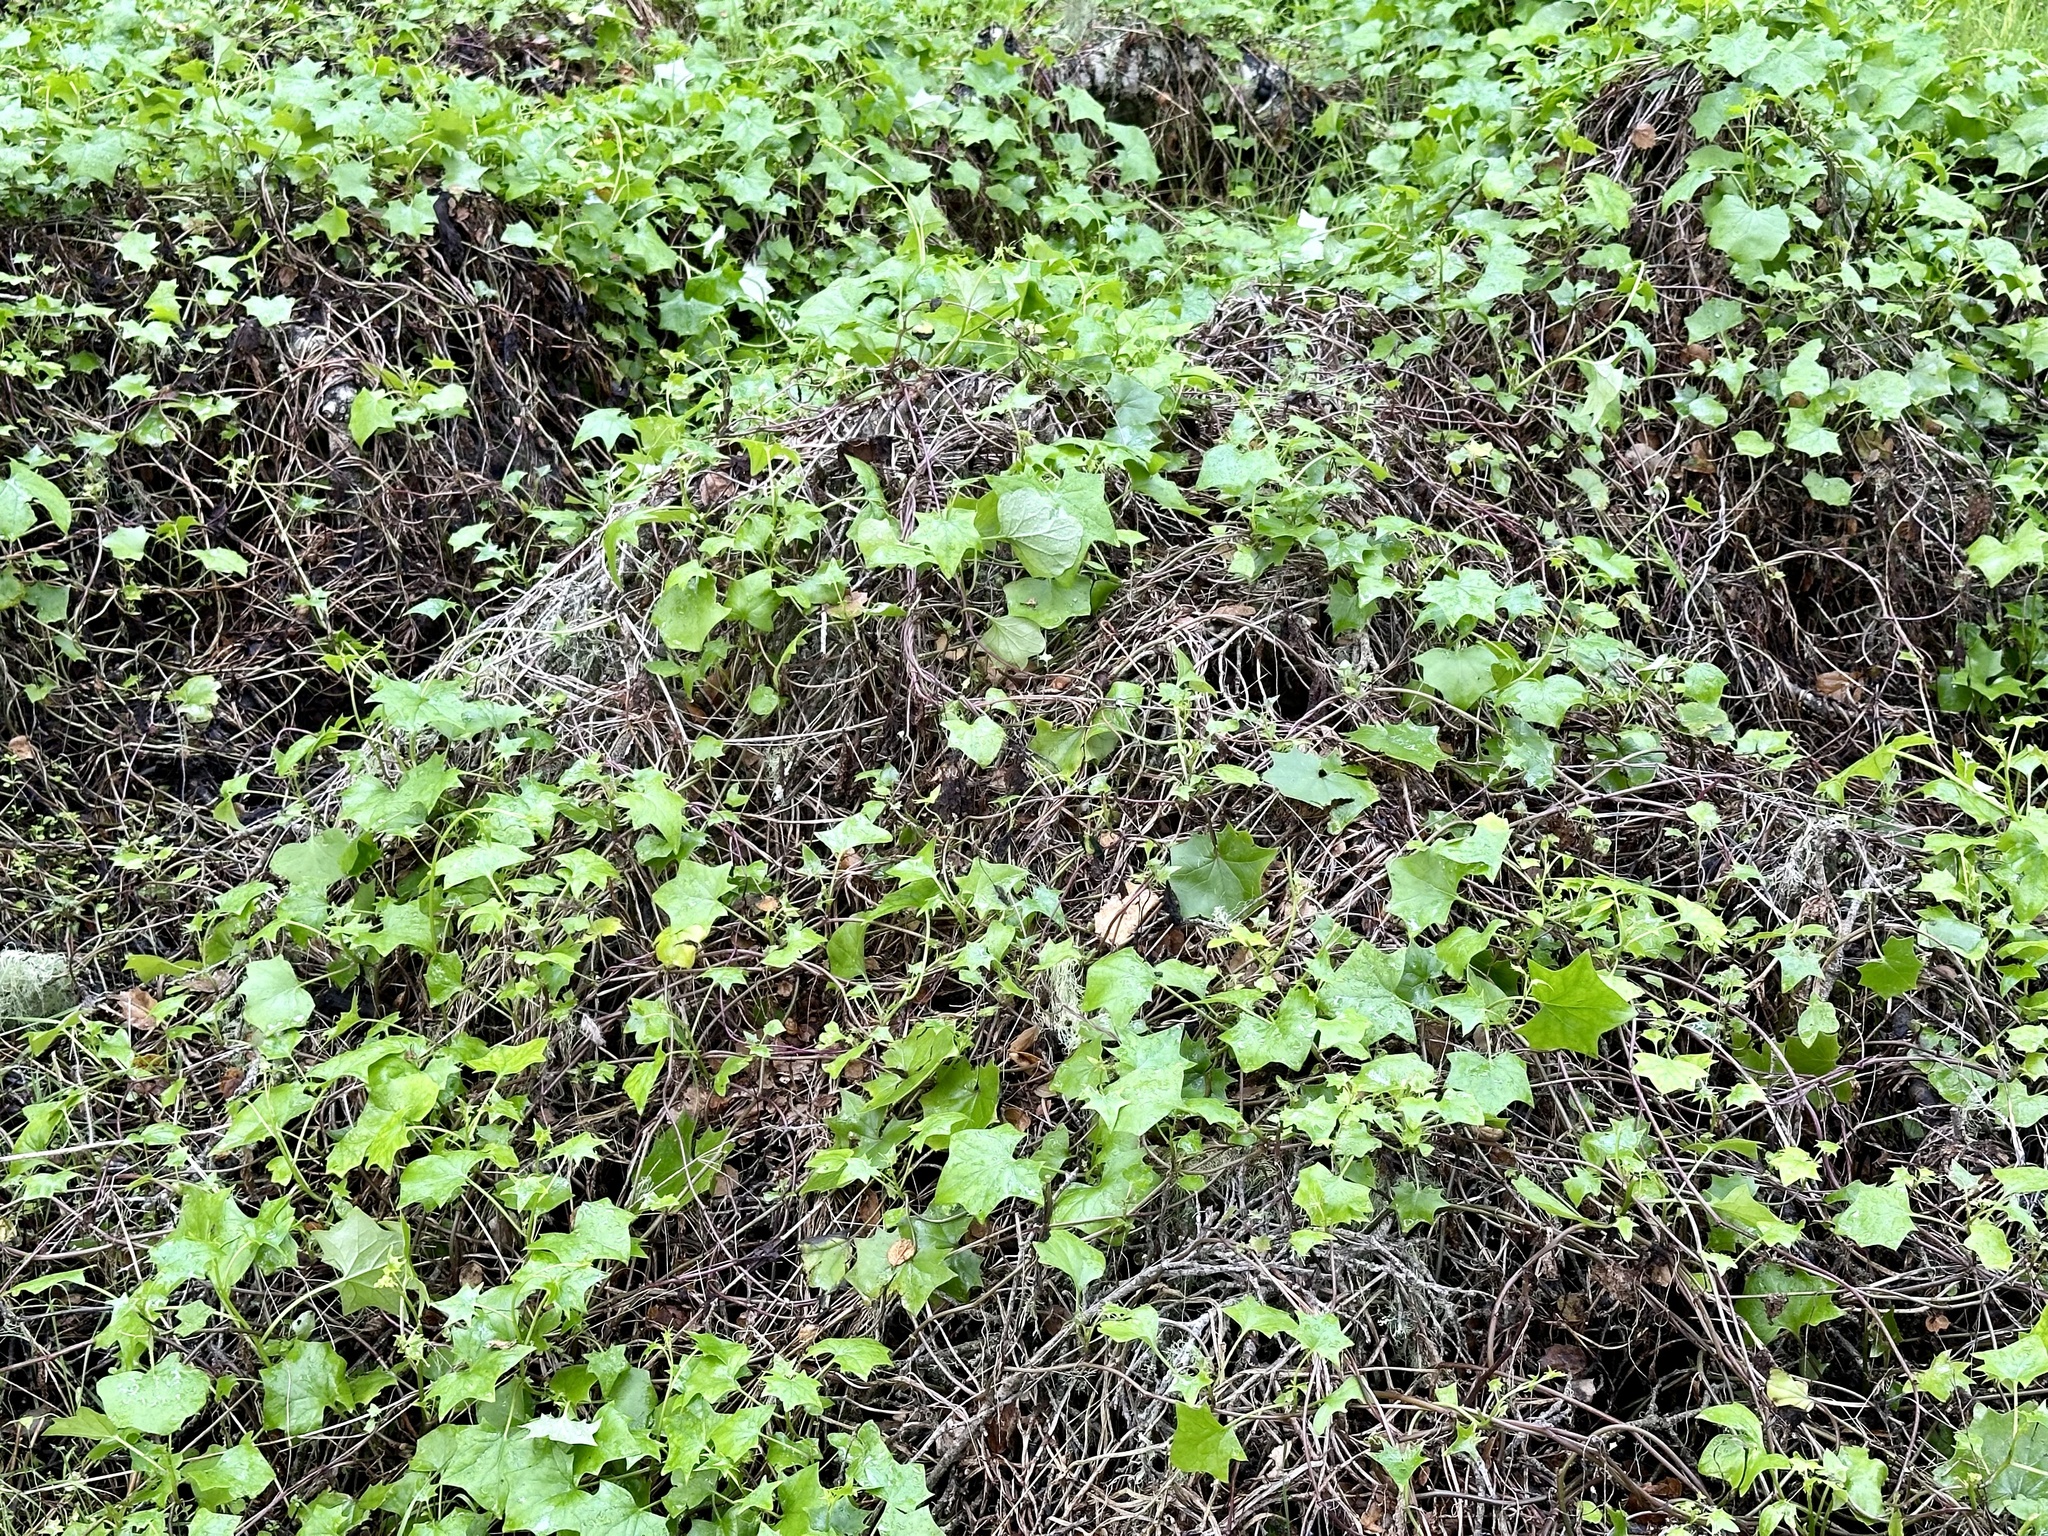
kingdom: Plantae
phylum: Tracheophyta
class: Magnoliopsida
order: Asterales
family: Asteraceae
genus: Delairea
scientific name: Delairea odorata
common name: Cape-ivy
